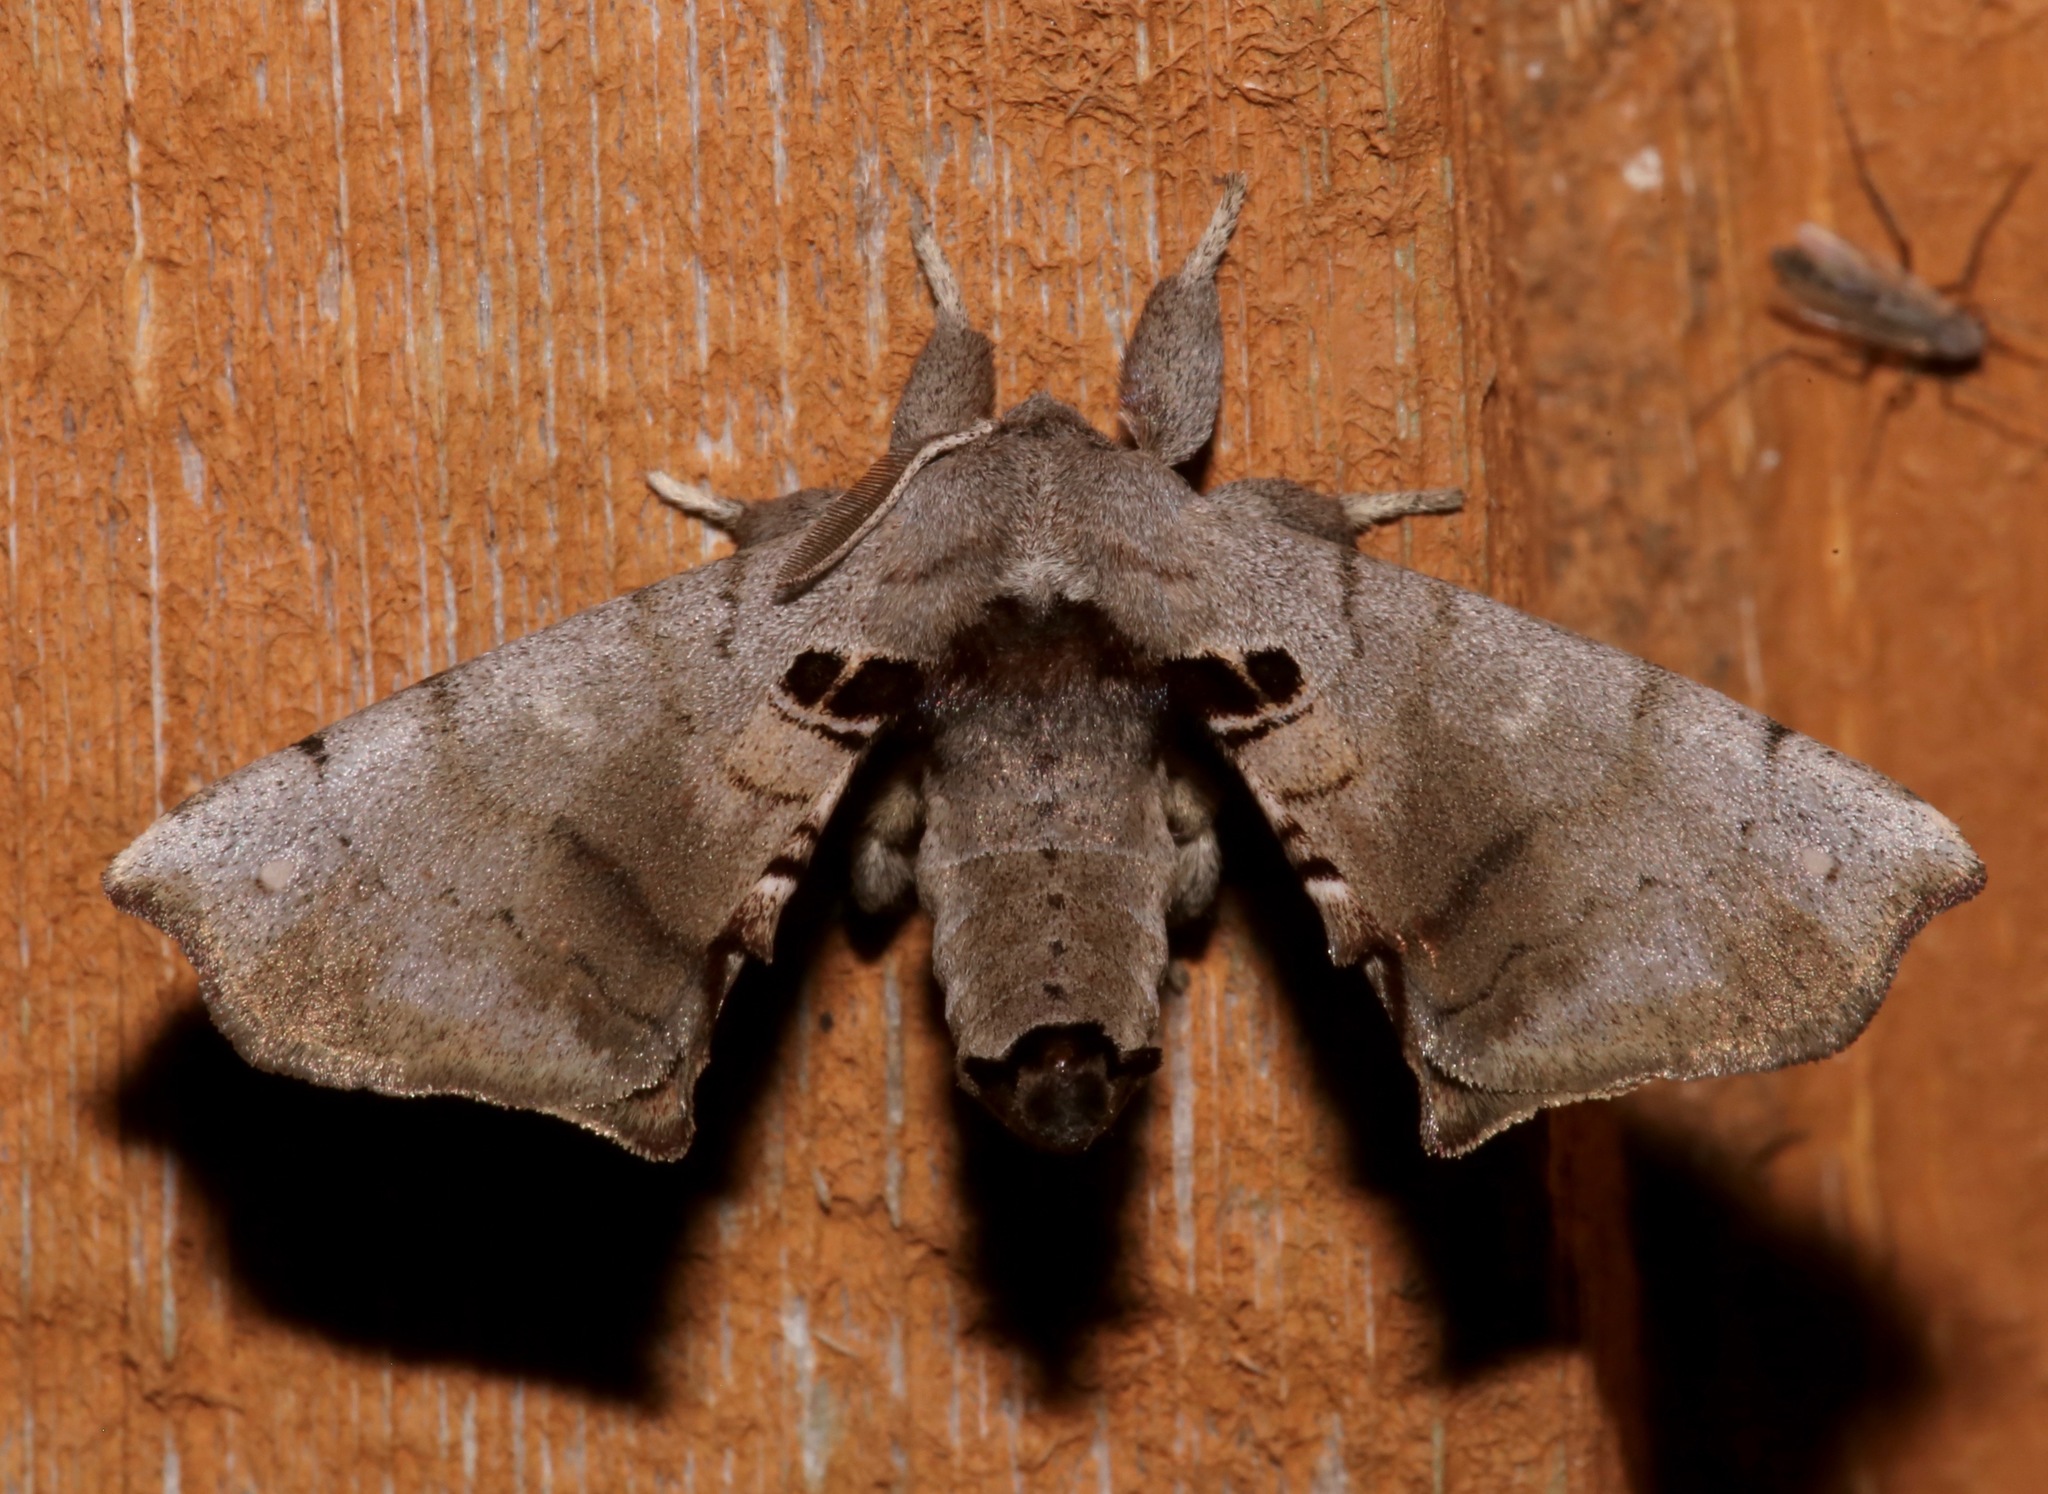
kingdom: Animalia
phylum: Arthropoda
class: Insecta
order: Lepidoptera
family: Apatelodidae
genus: Hygrochroa
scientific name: Hygrochroa Apatelodes torrefacta
